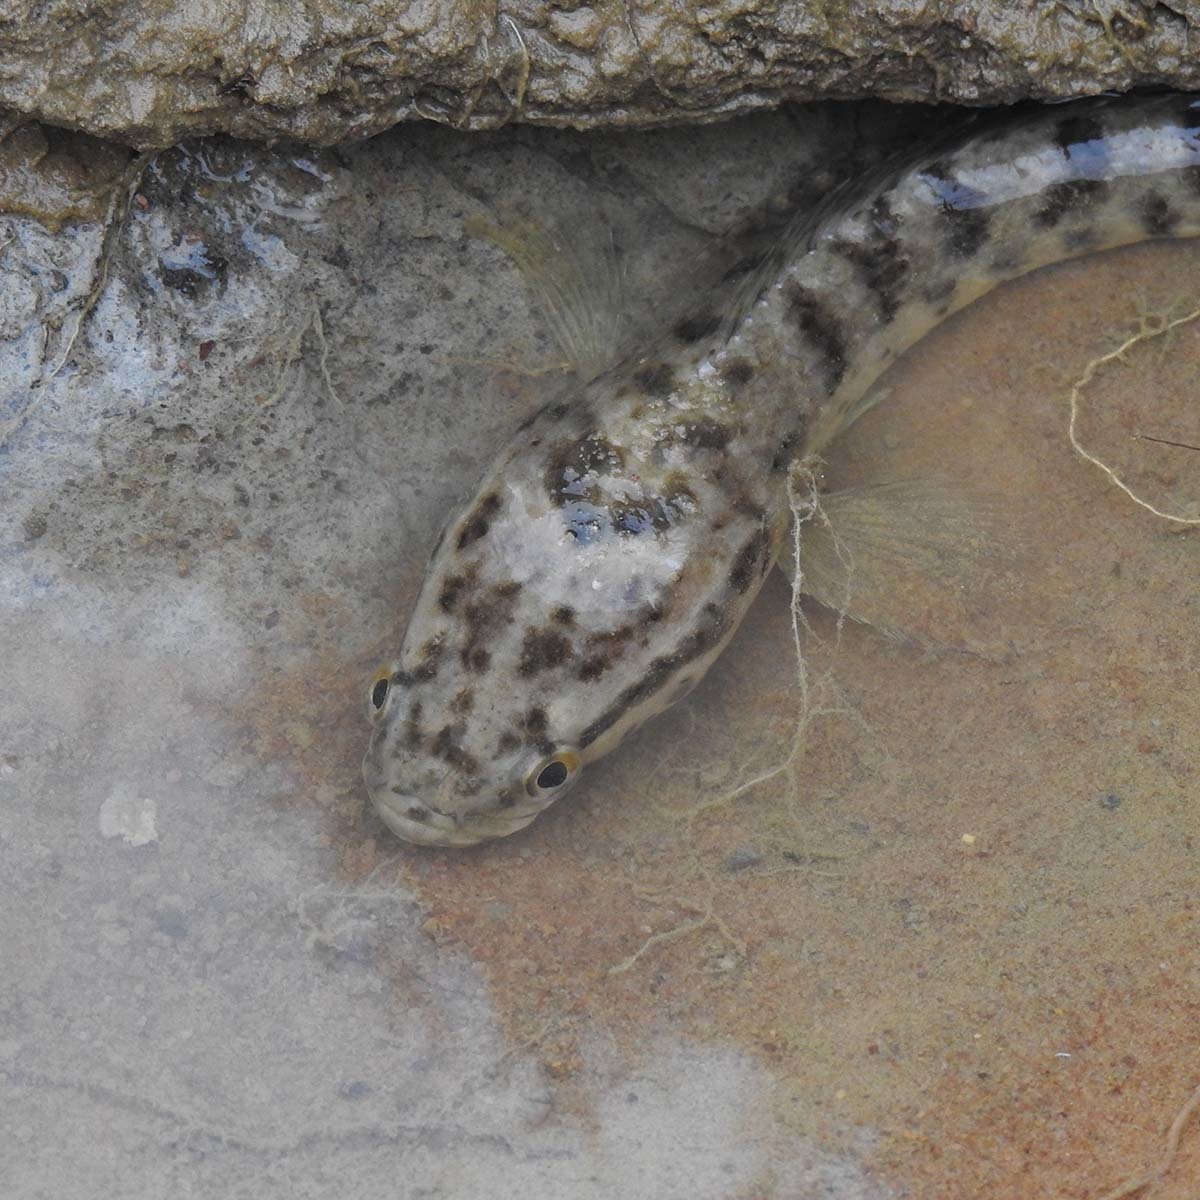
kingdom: Animalia
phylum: Chordata
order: Perciformes
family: Channidae
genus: Channa
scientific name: Channa punctata
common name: Spotted snakehead
